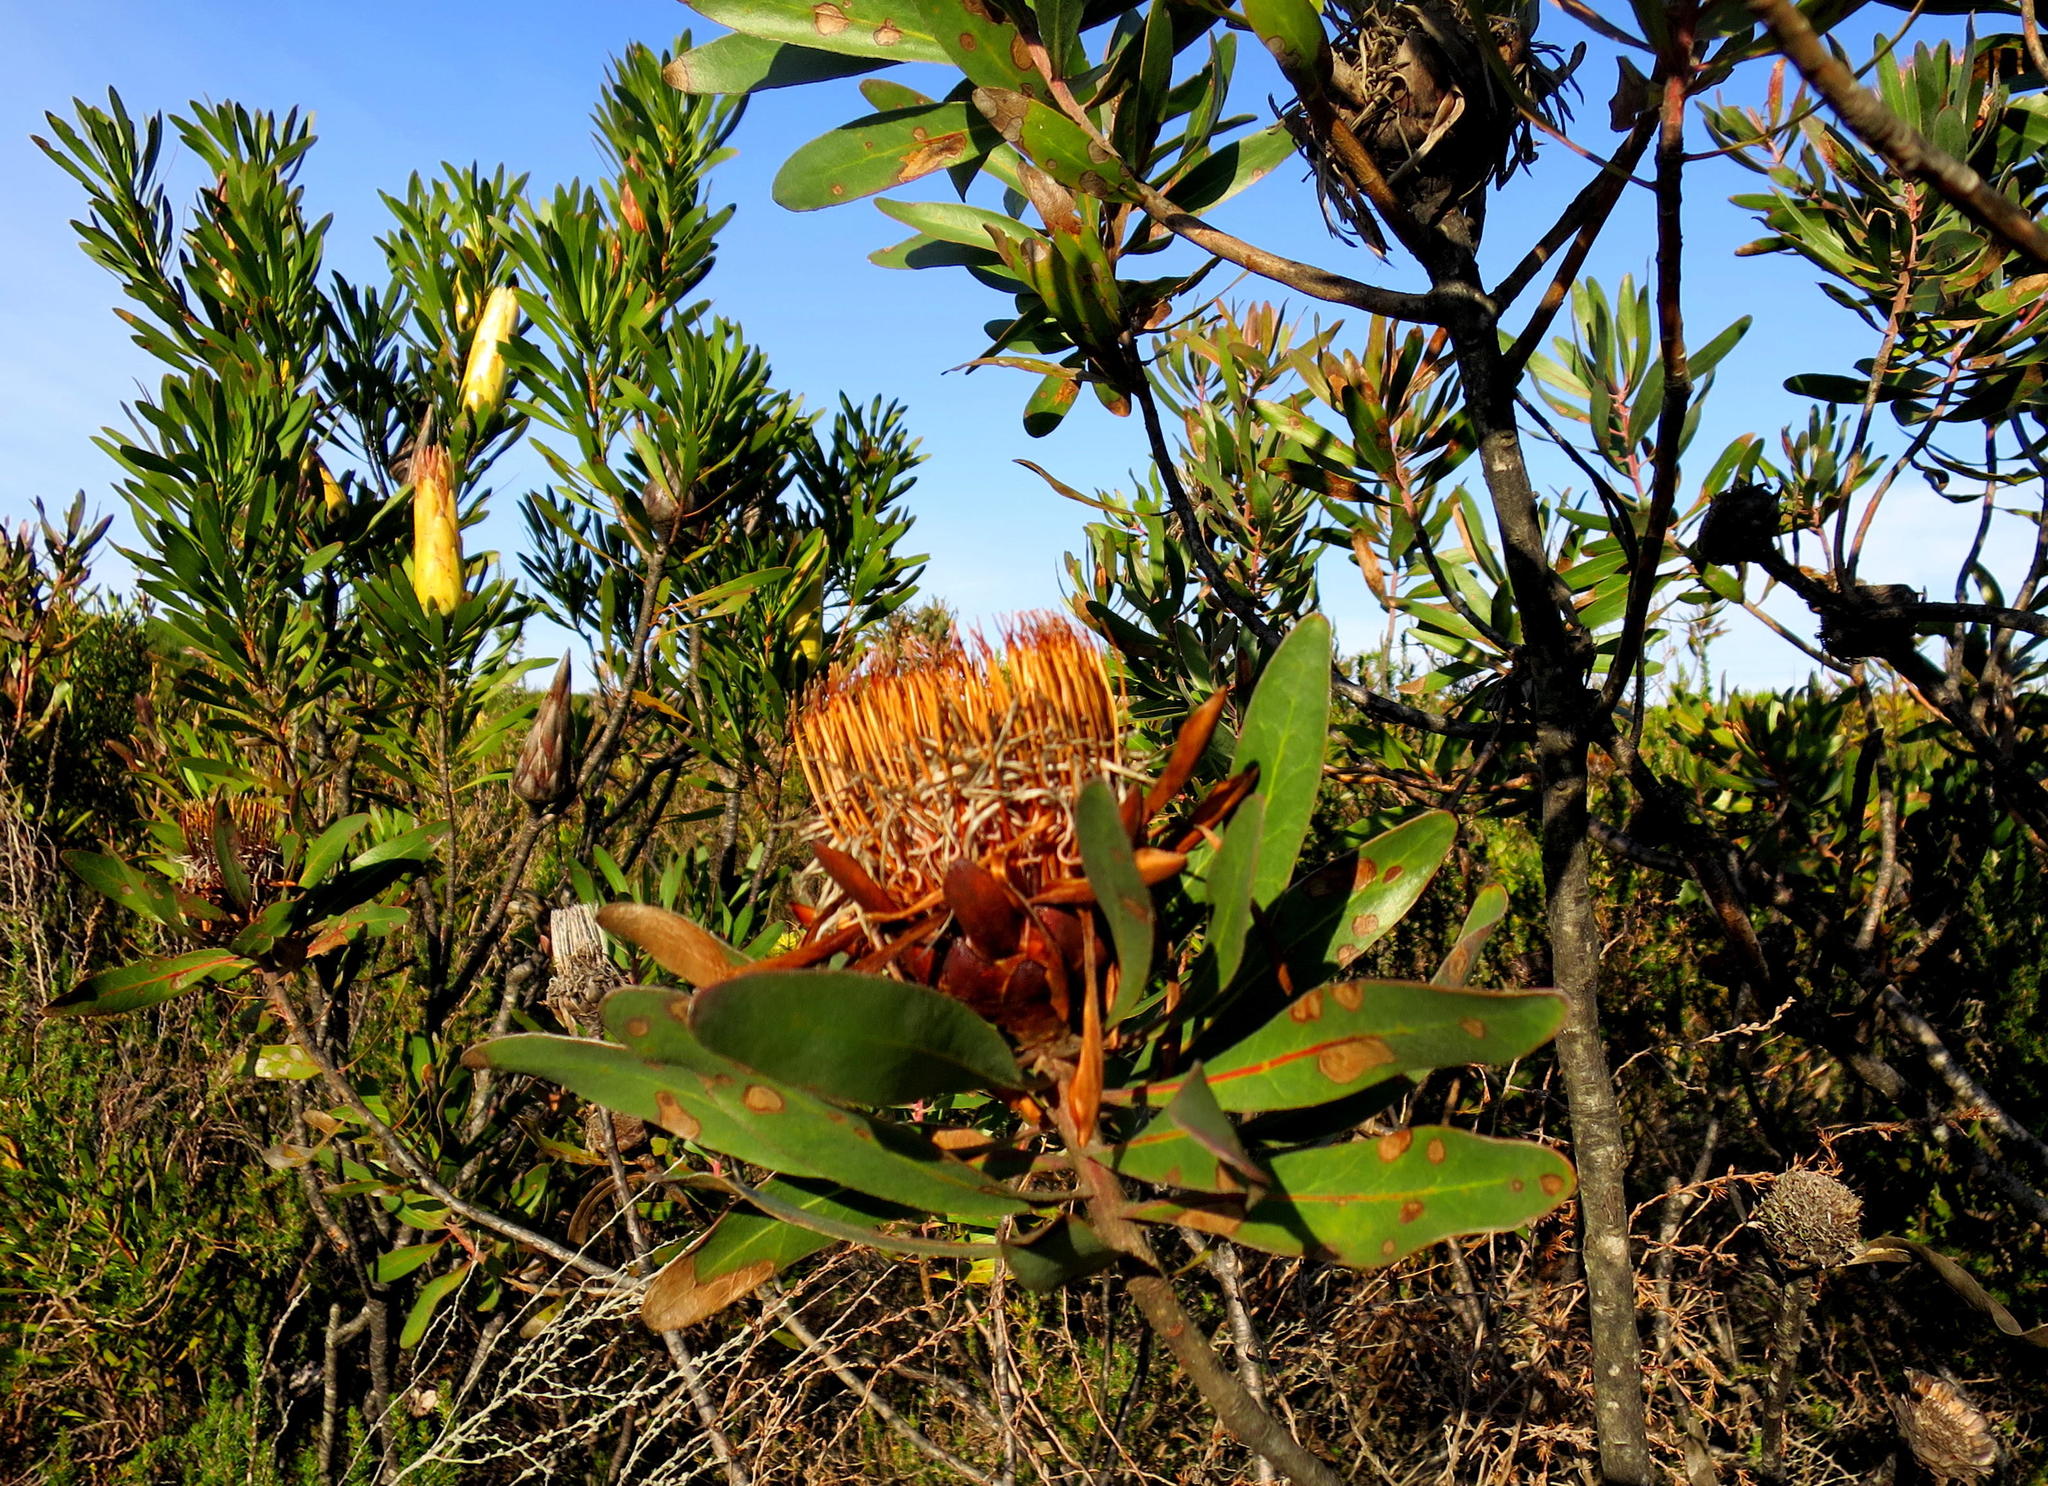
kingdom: Plantae
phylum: Tracheophyta
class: Magnoliopsida
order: Proteales
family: Proteaceae
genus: Protea
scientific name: Protea susannae
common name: Foetid-leaf sugarbush
